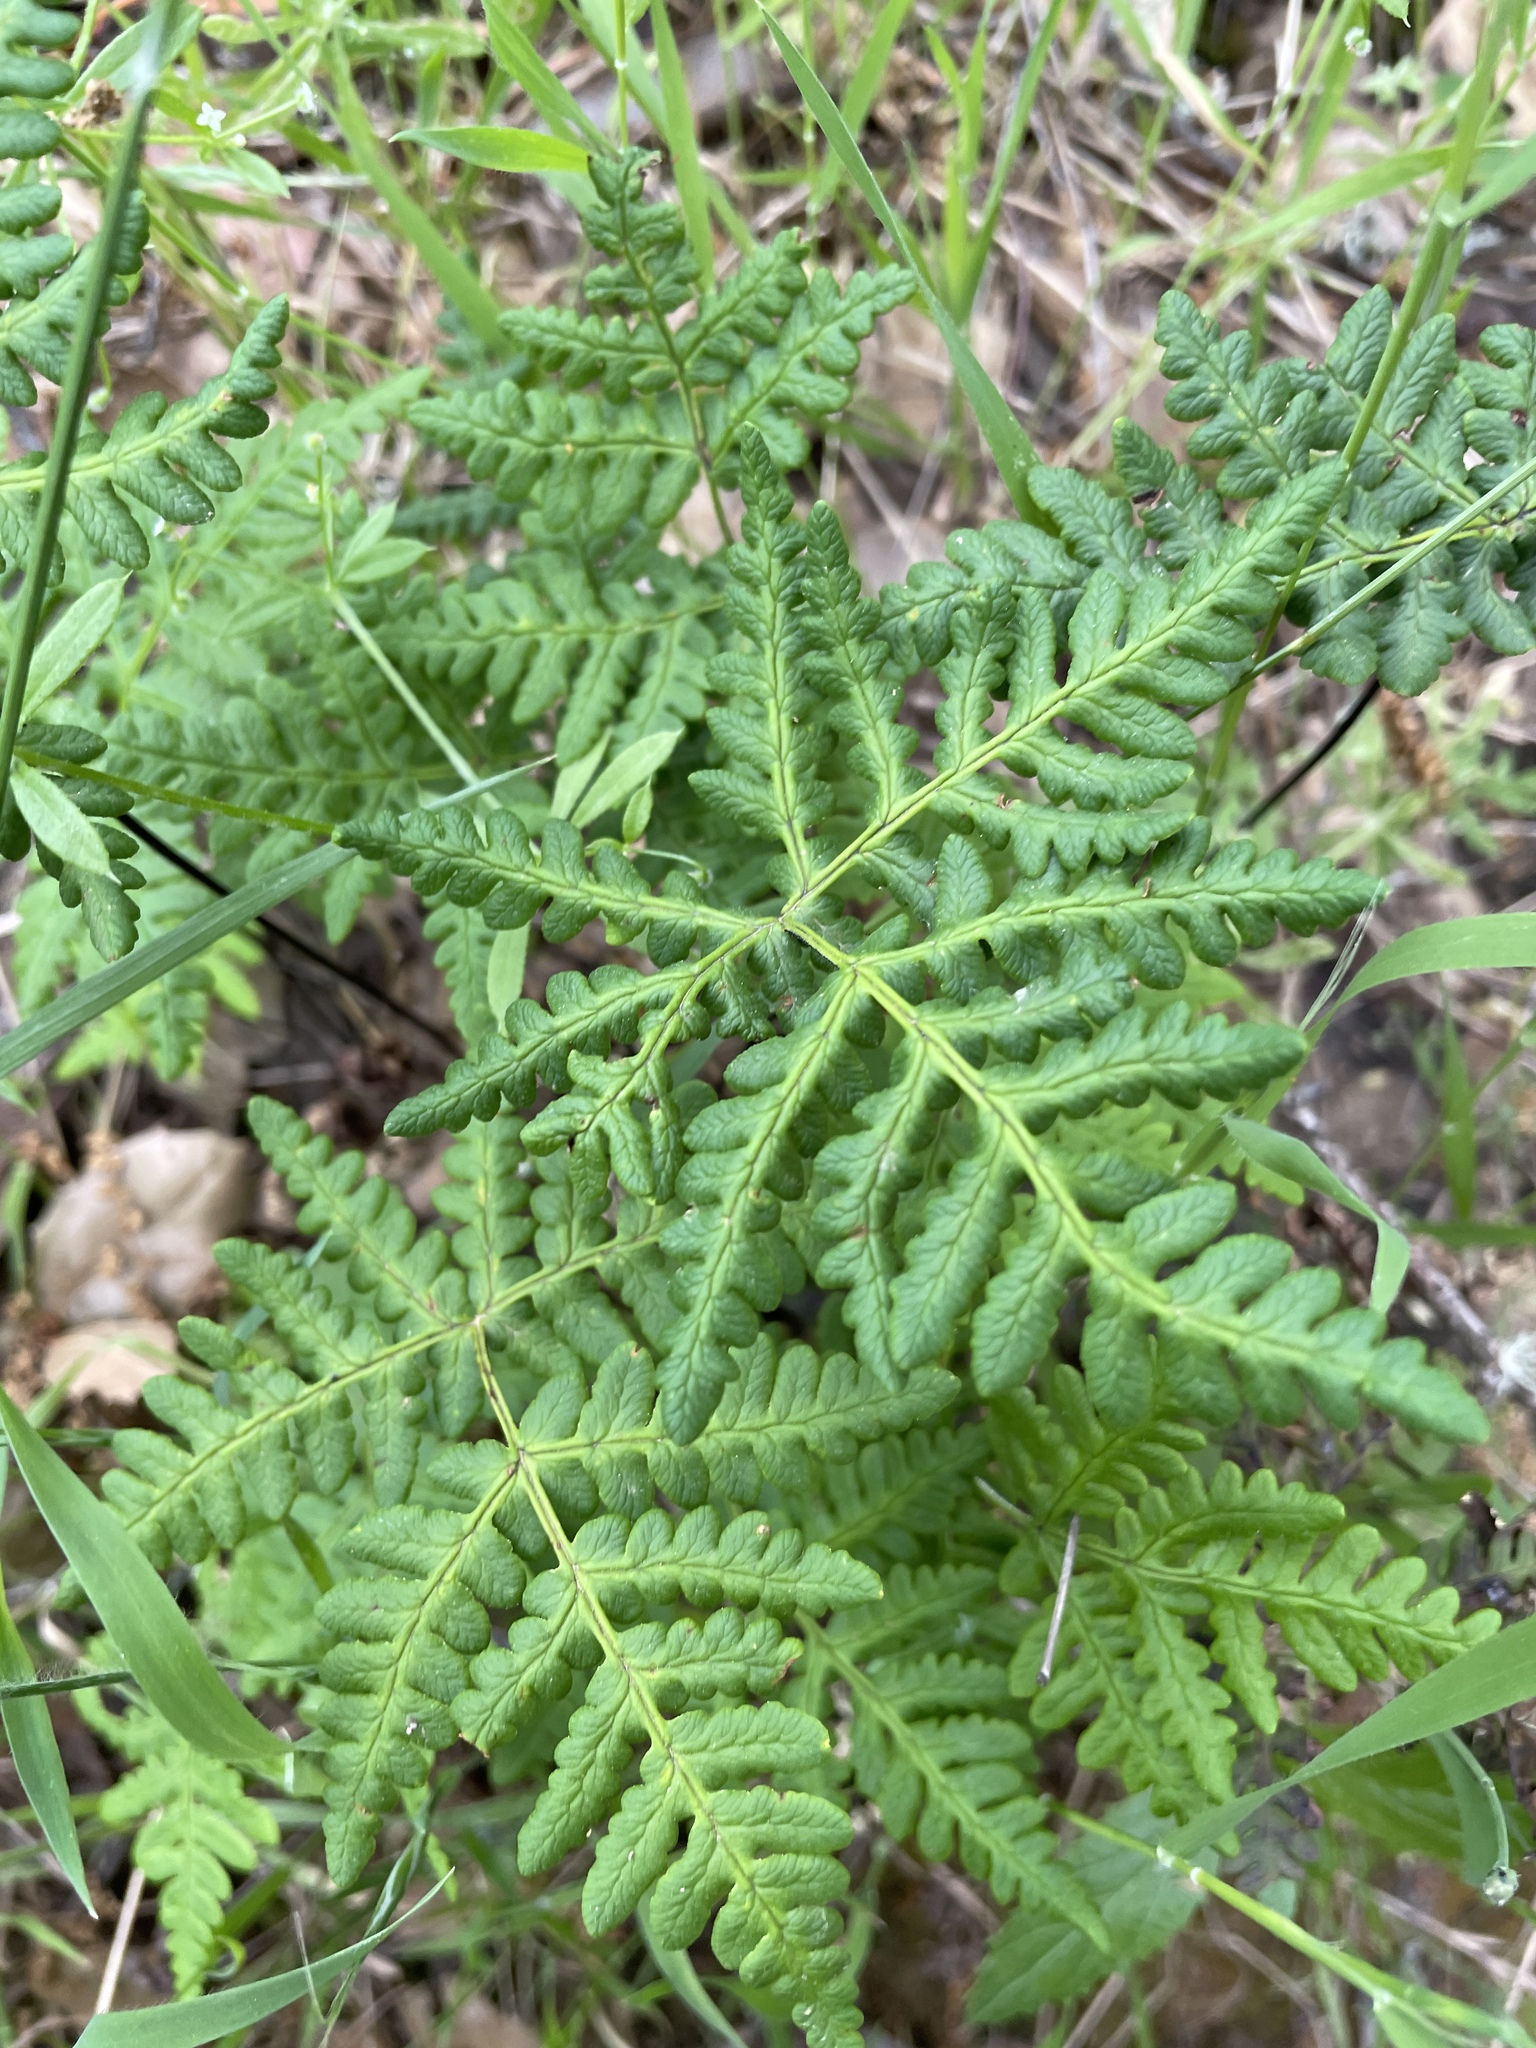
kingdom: Plantae
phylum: Tracheophyta
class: Polypodiopsida
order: Polypodiales
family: Pteridaceae
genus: Pentagramma
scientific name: Pentagramma triangularis
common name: Gold fern
